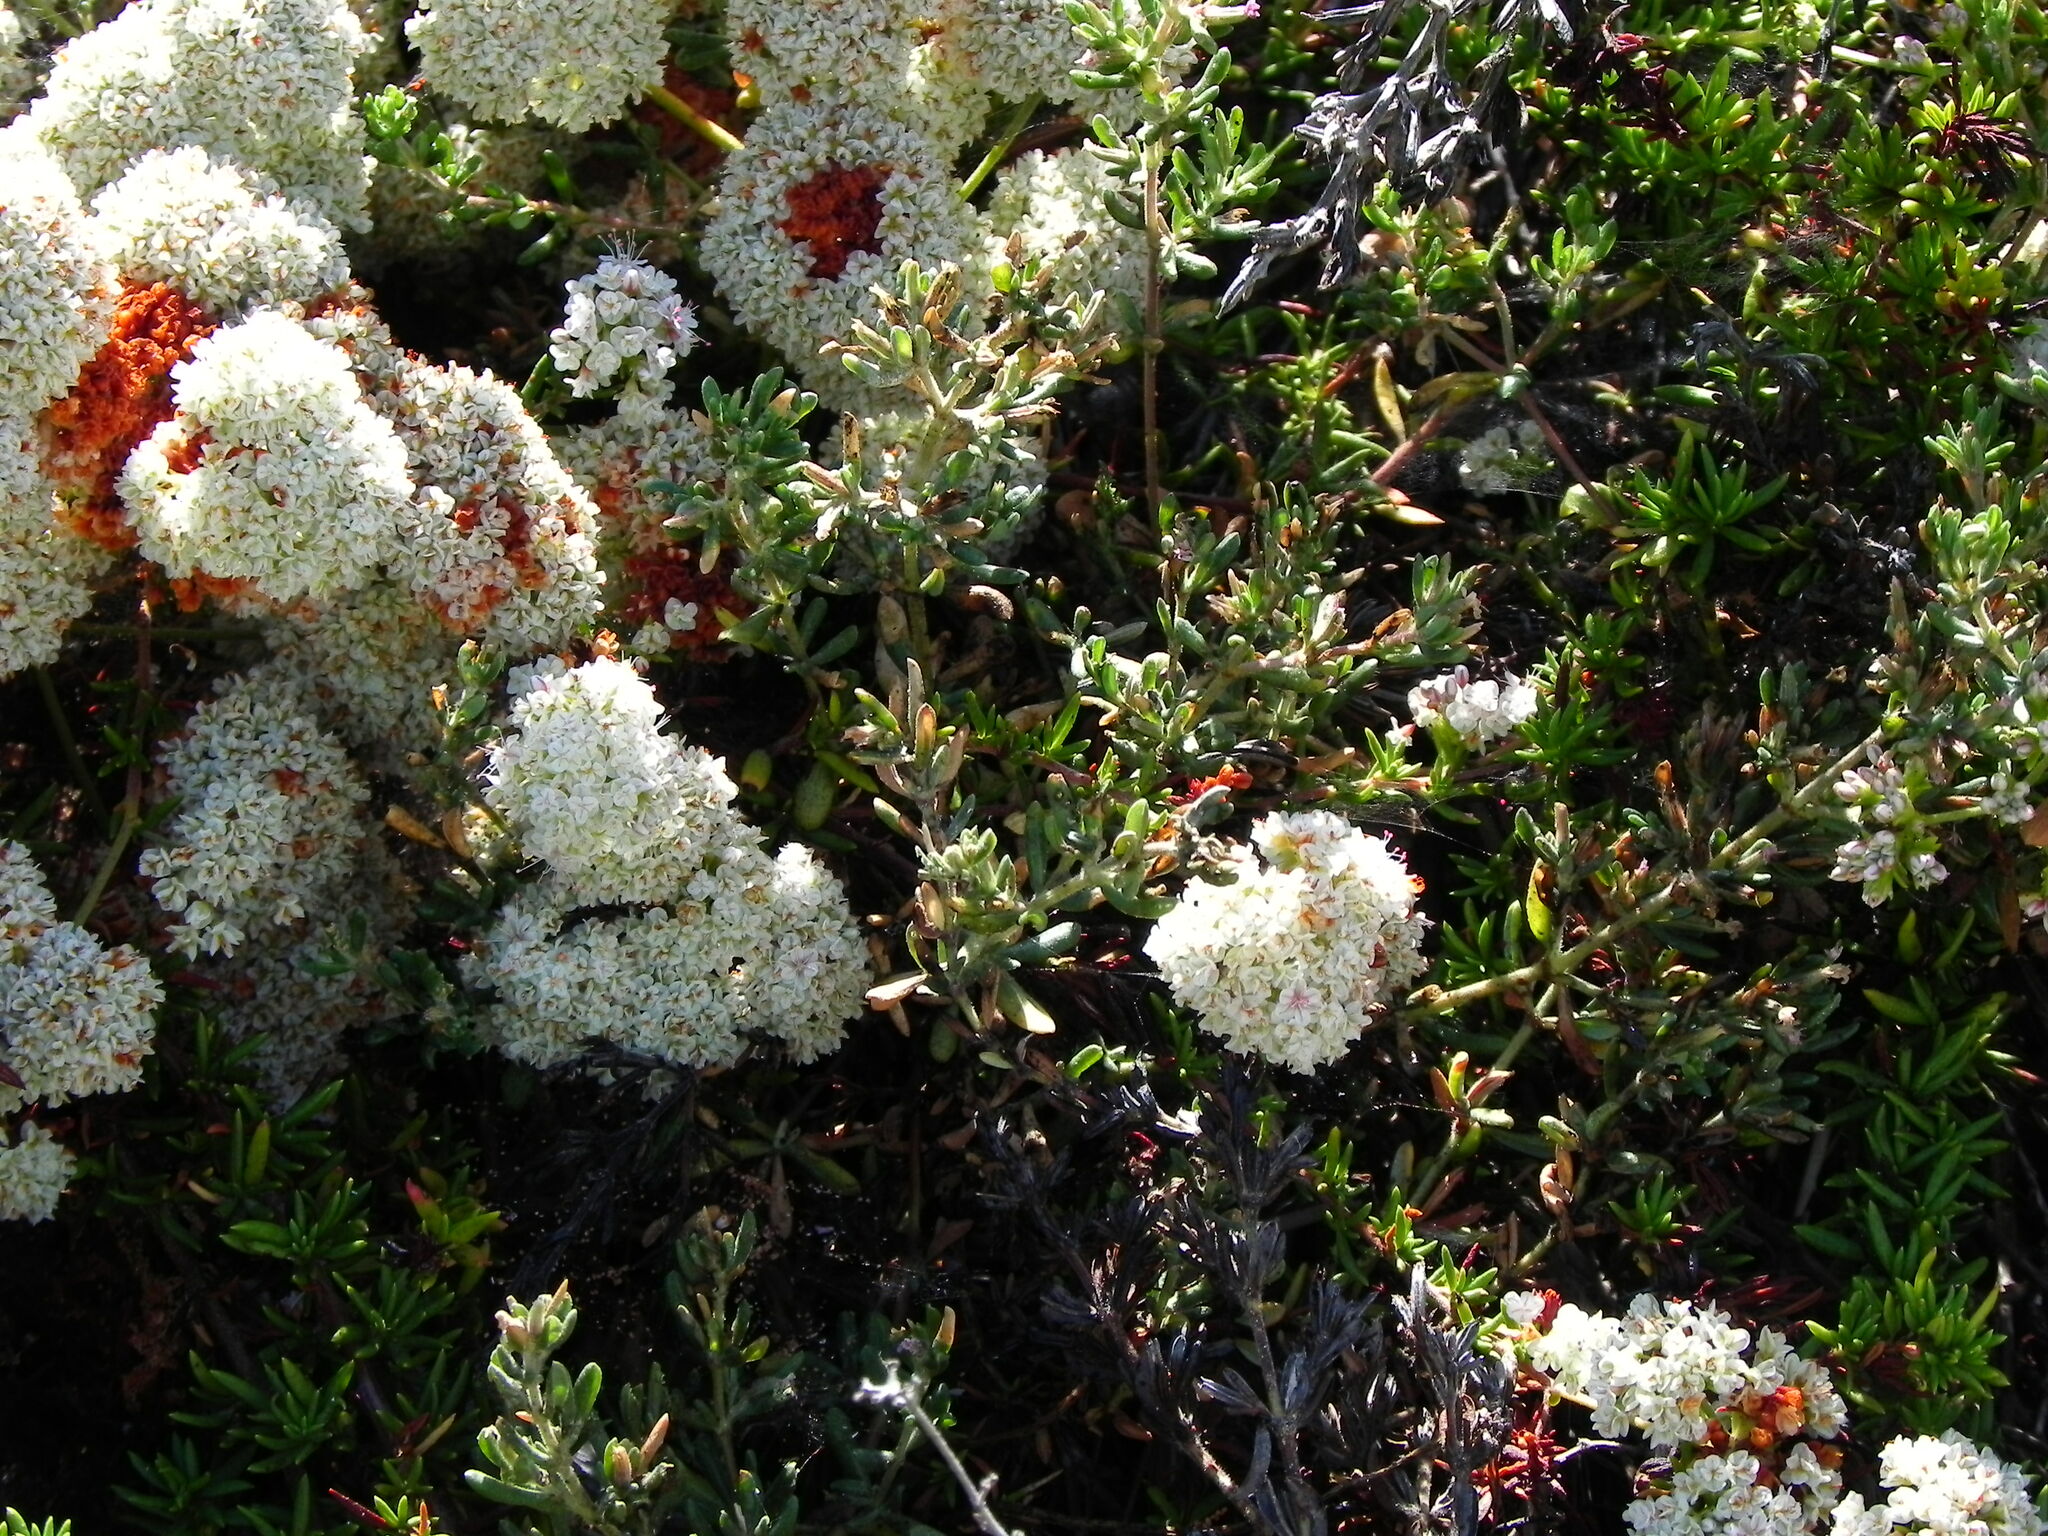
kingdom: Plantae
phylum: Tracheophyta
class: Magnoliopsida
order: Caryophyllales
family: Polygonaceae
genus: Eriogonum
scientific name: Eriogonum fasciculatum
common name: California wild buckwheat
